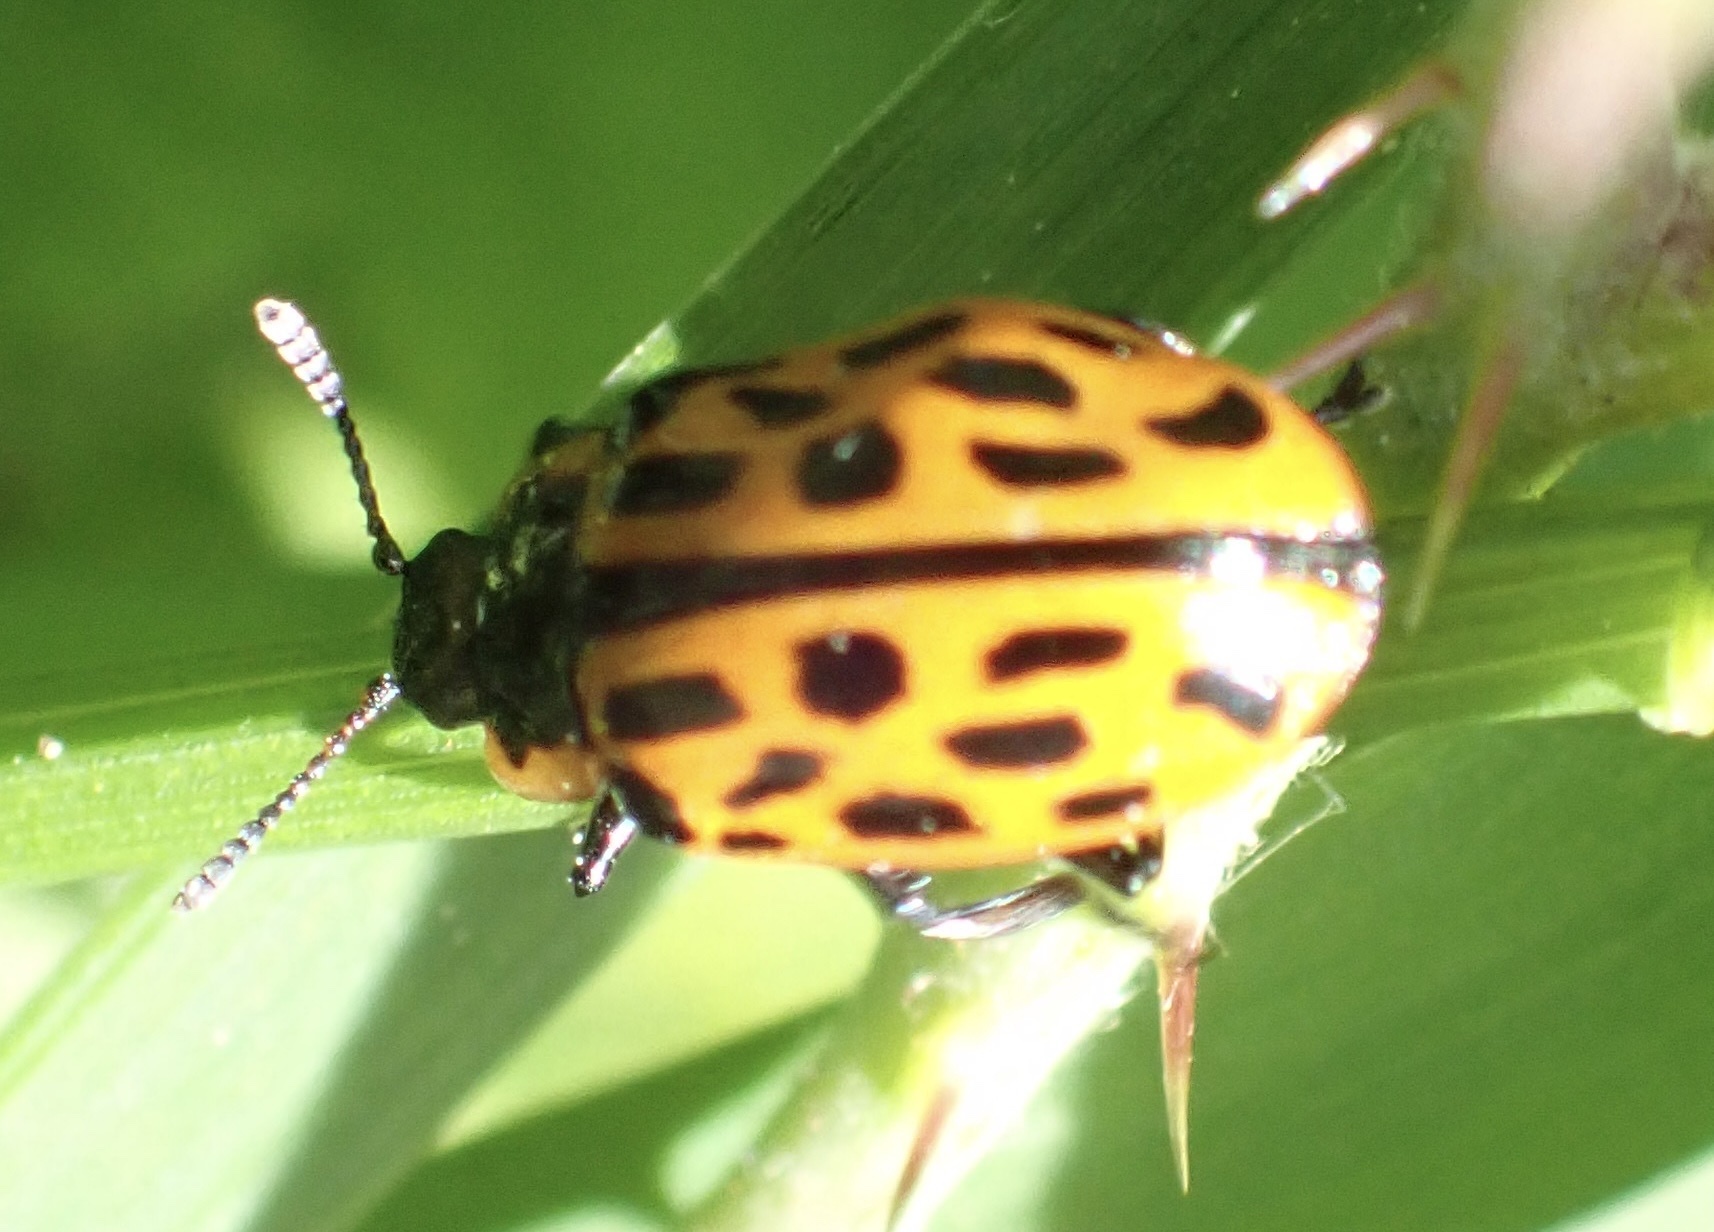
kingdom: Animalia
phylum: Arthropoda
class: Insecta
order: Coleoptera
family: Chrysomelidae
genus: Chrysomela
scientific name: Chrysomela vigintipunctata
